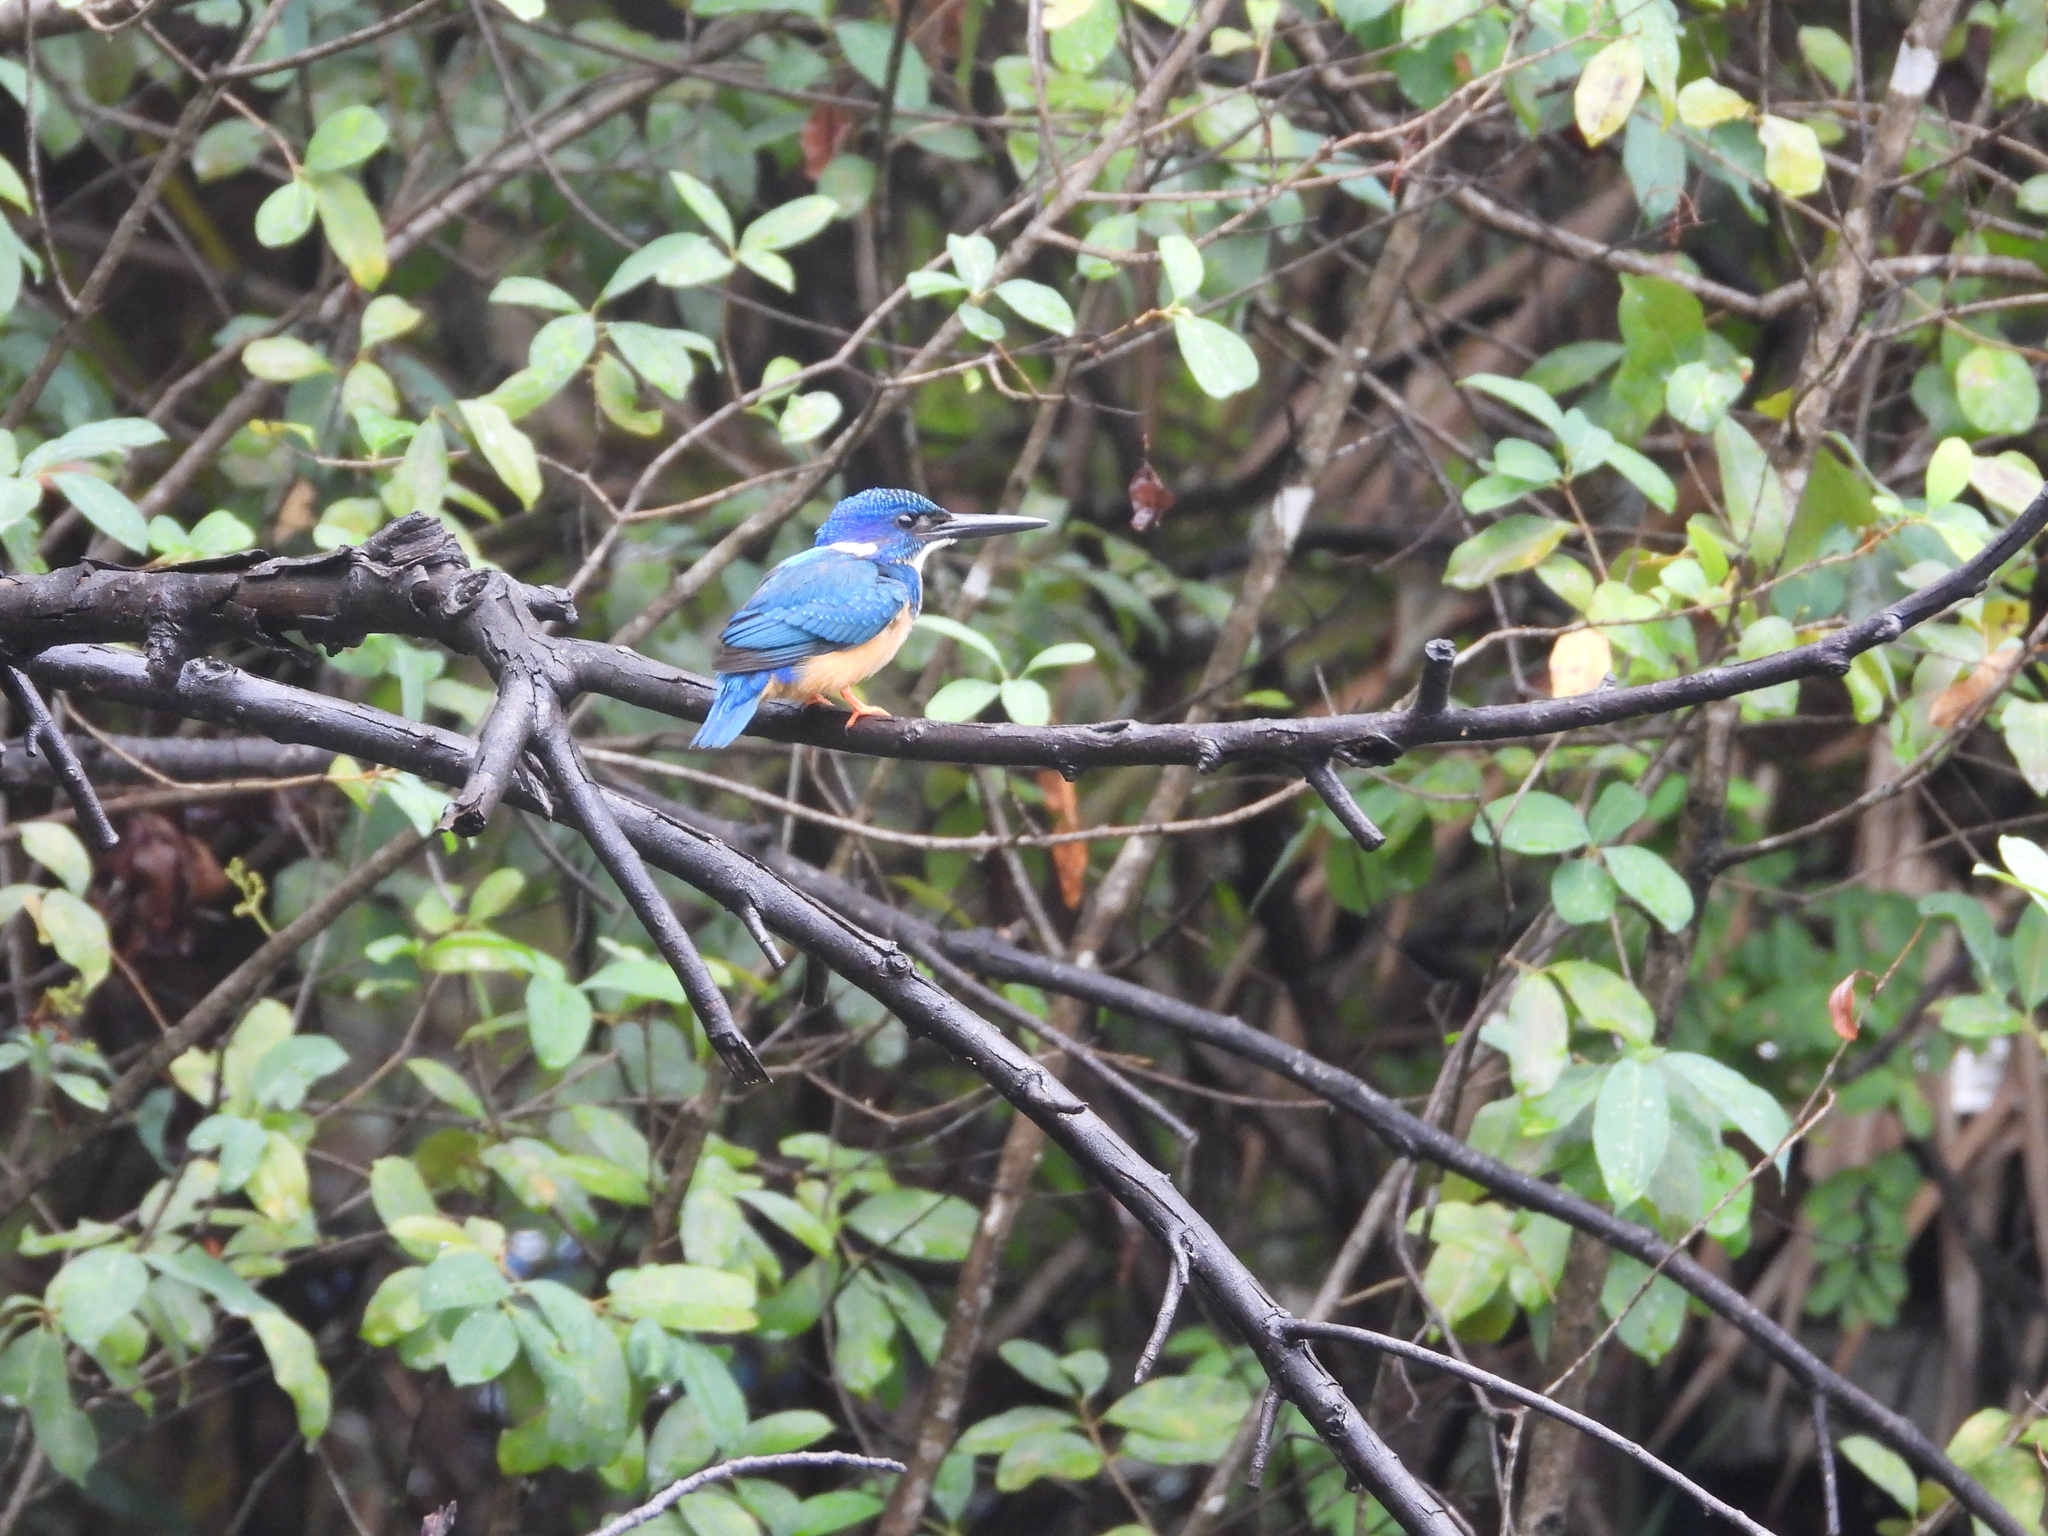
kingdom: Animalia
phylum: Chordata
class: Aves
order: Coraciiformes
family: Alcedinidae
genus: Alcedo
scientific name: Alcedo semitorquata
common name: Half-collared kingfisher
